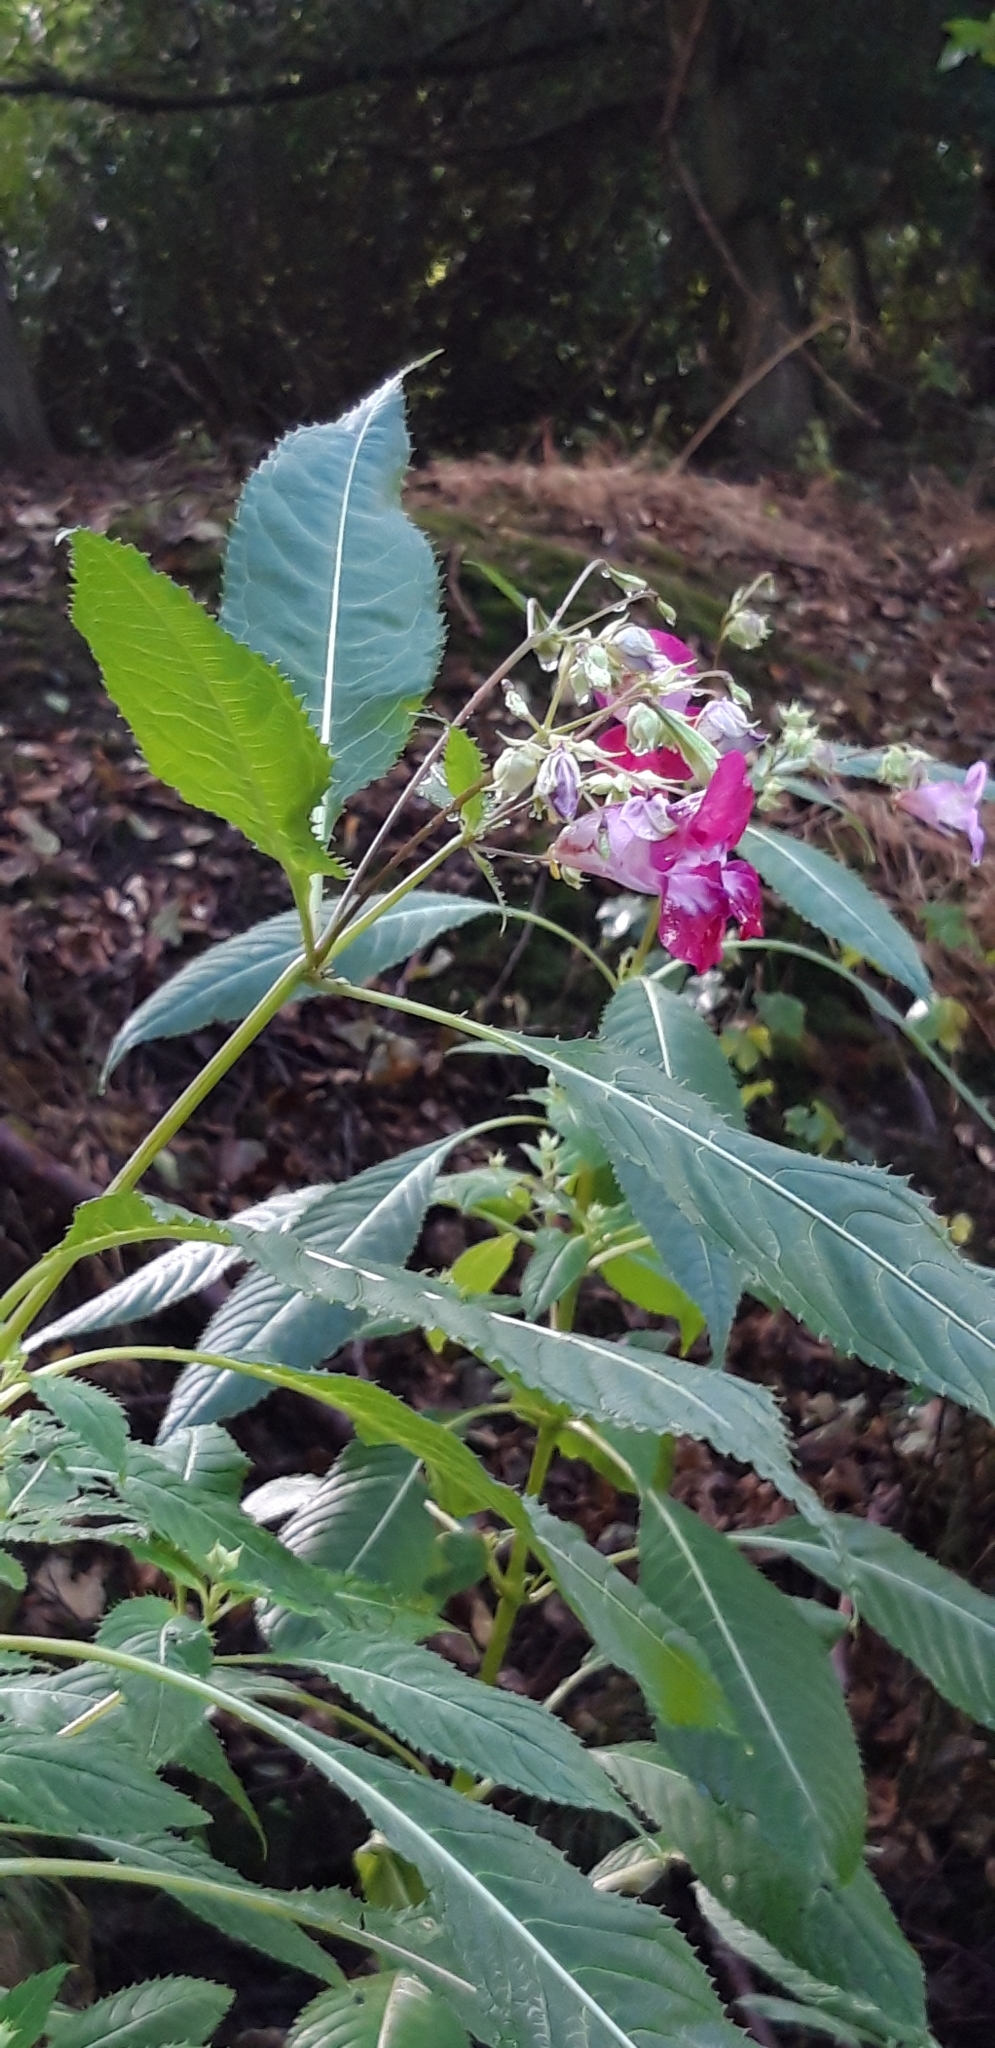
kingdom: Plantae
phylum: Tracheophyta
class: Magnoliopsida
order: Ericales
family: Balsaminaceae
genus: Impatiens
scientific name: Impatiens glandulifera
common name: Himalayan balsam
